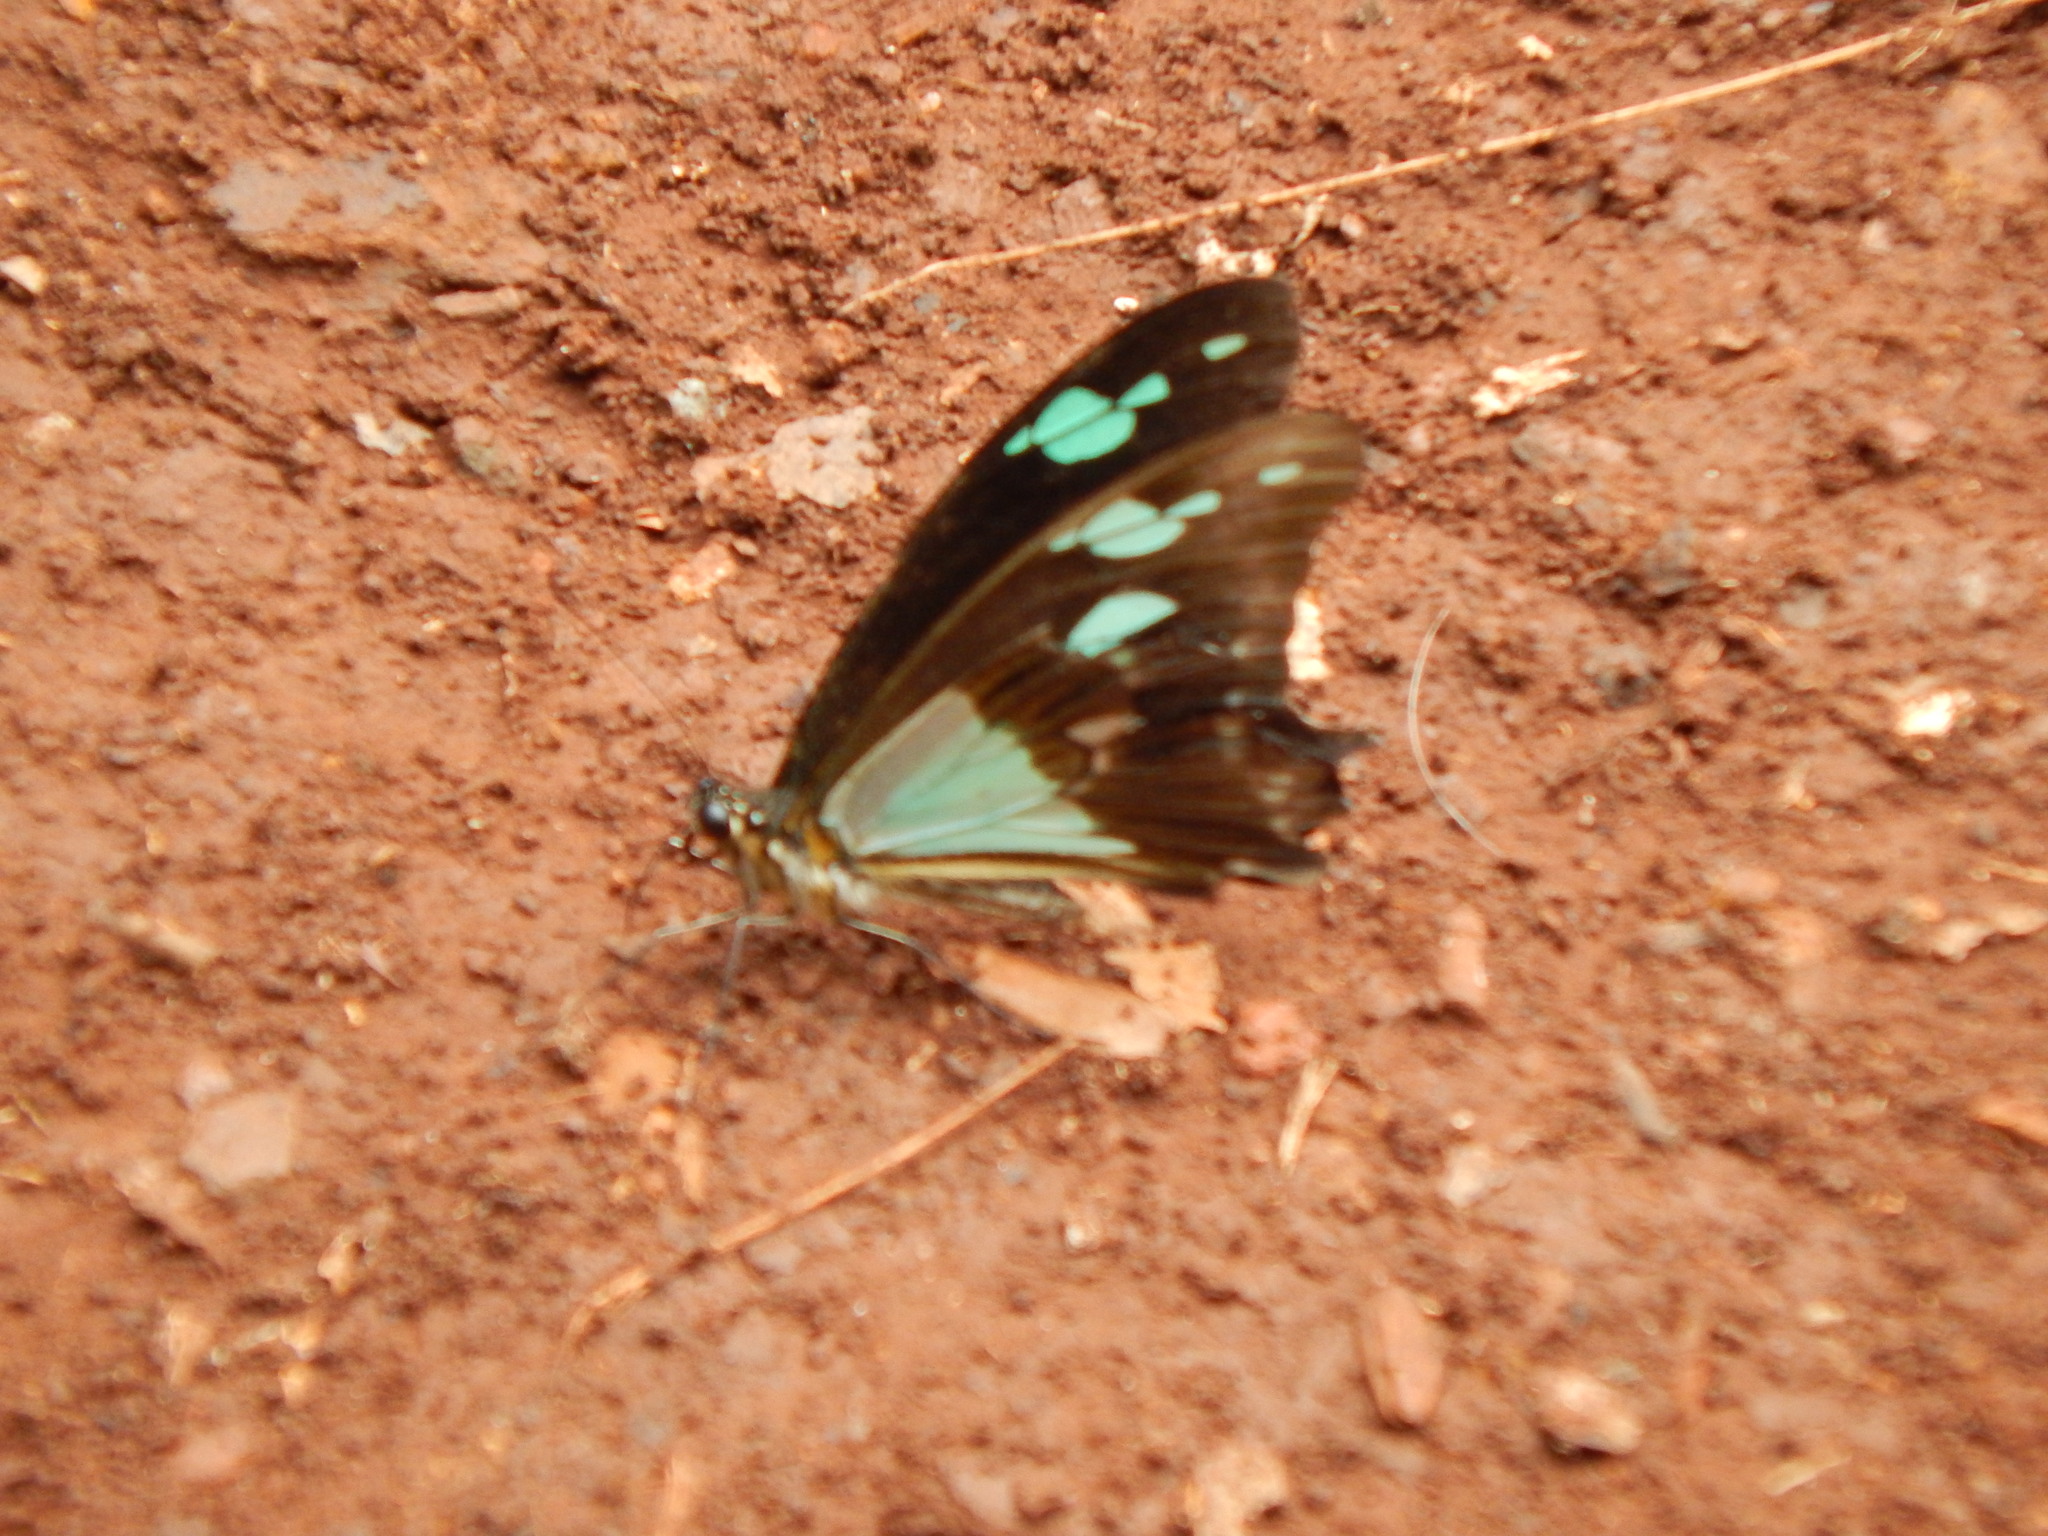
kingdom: Animalia
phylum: Arthropoda
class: Insecta
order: Lepidoptera
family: Papilionidae
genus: Papilio
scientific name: Papilio phorcas
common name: Apple-green swallowtail
